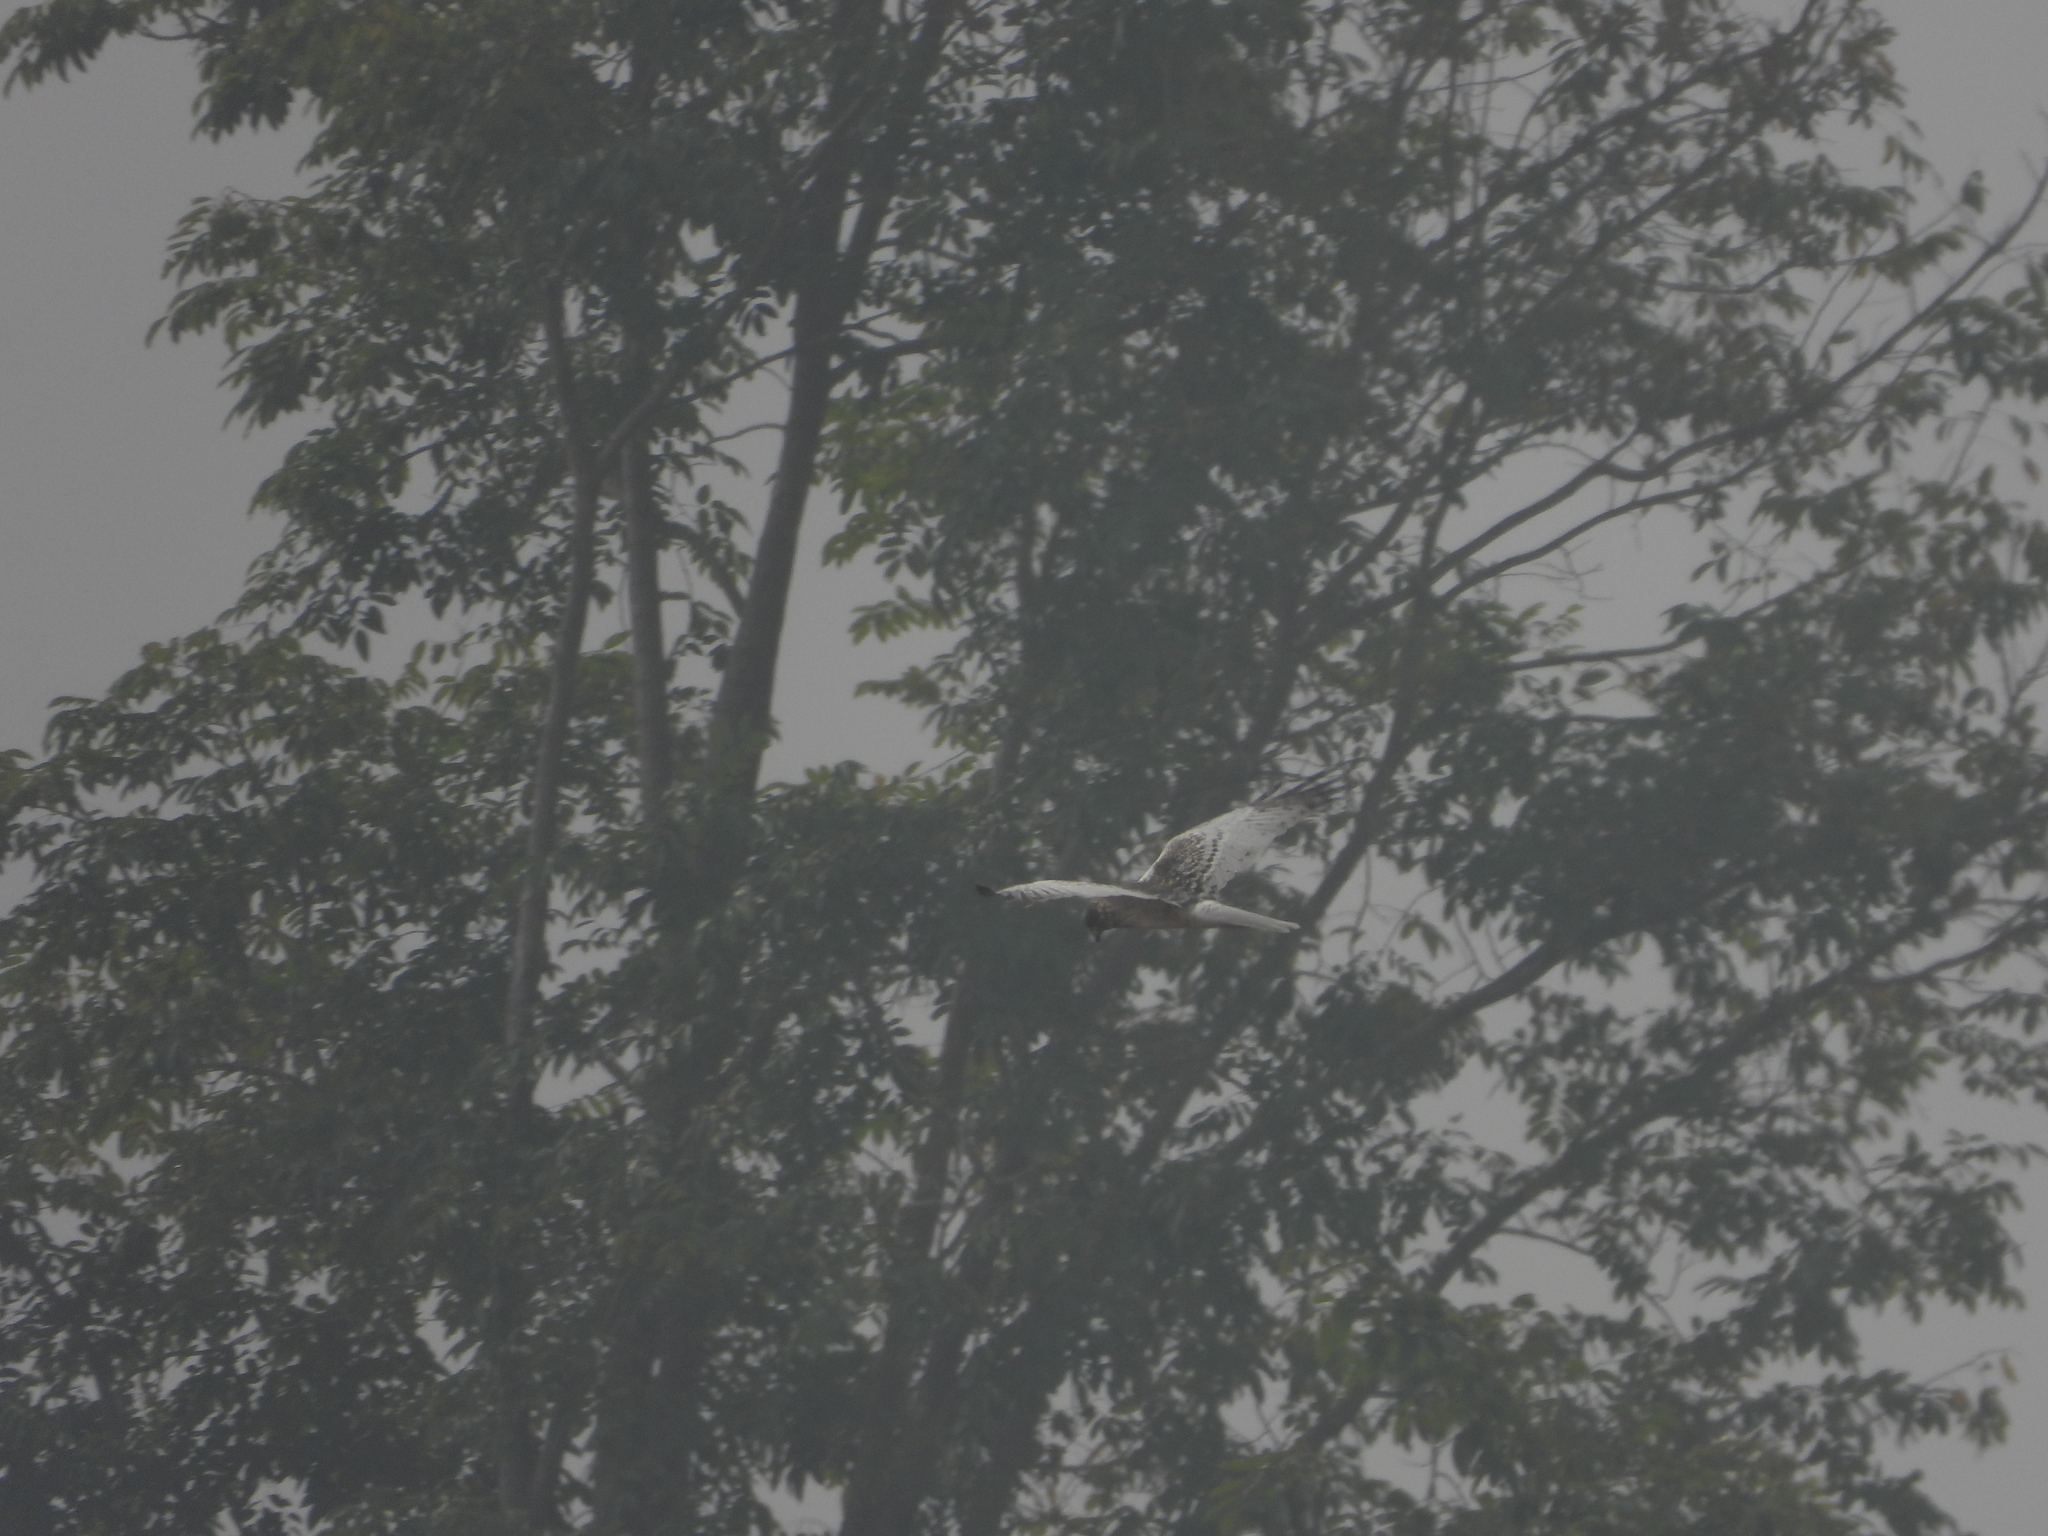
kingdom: Animalia
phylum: Chordata
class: Aves
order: Accipitriformes
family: Accipitridae
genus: Circus
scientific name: Circus spilonotus
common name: Eastern marsh-harrier
